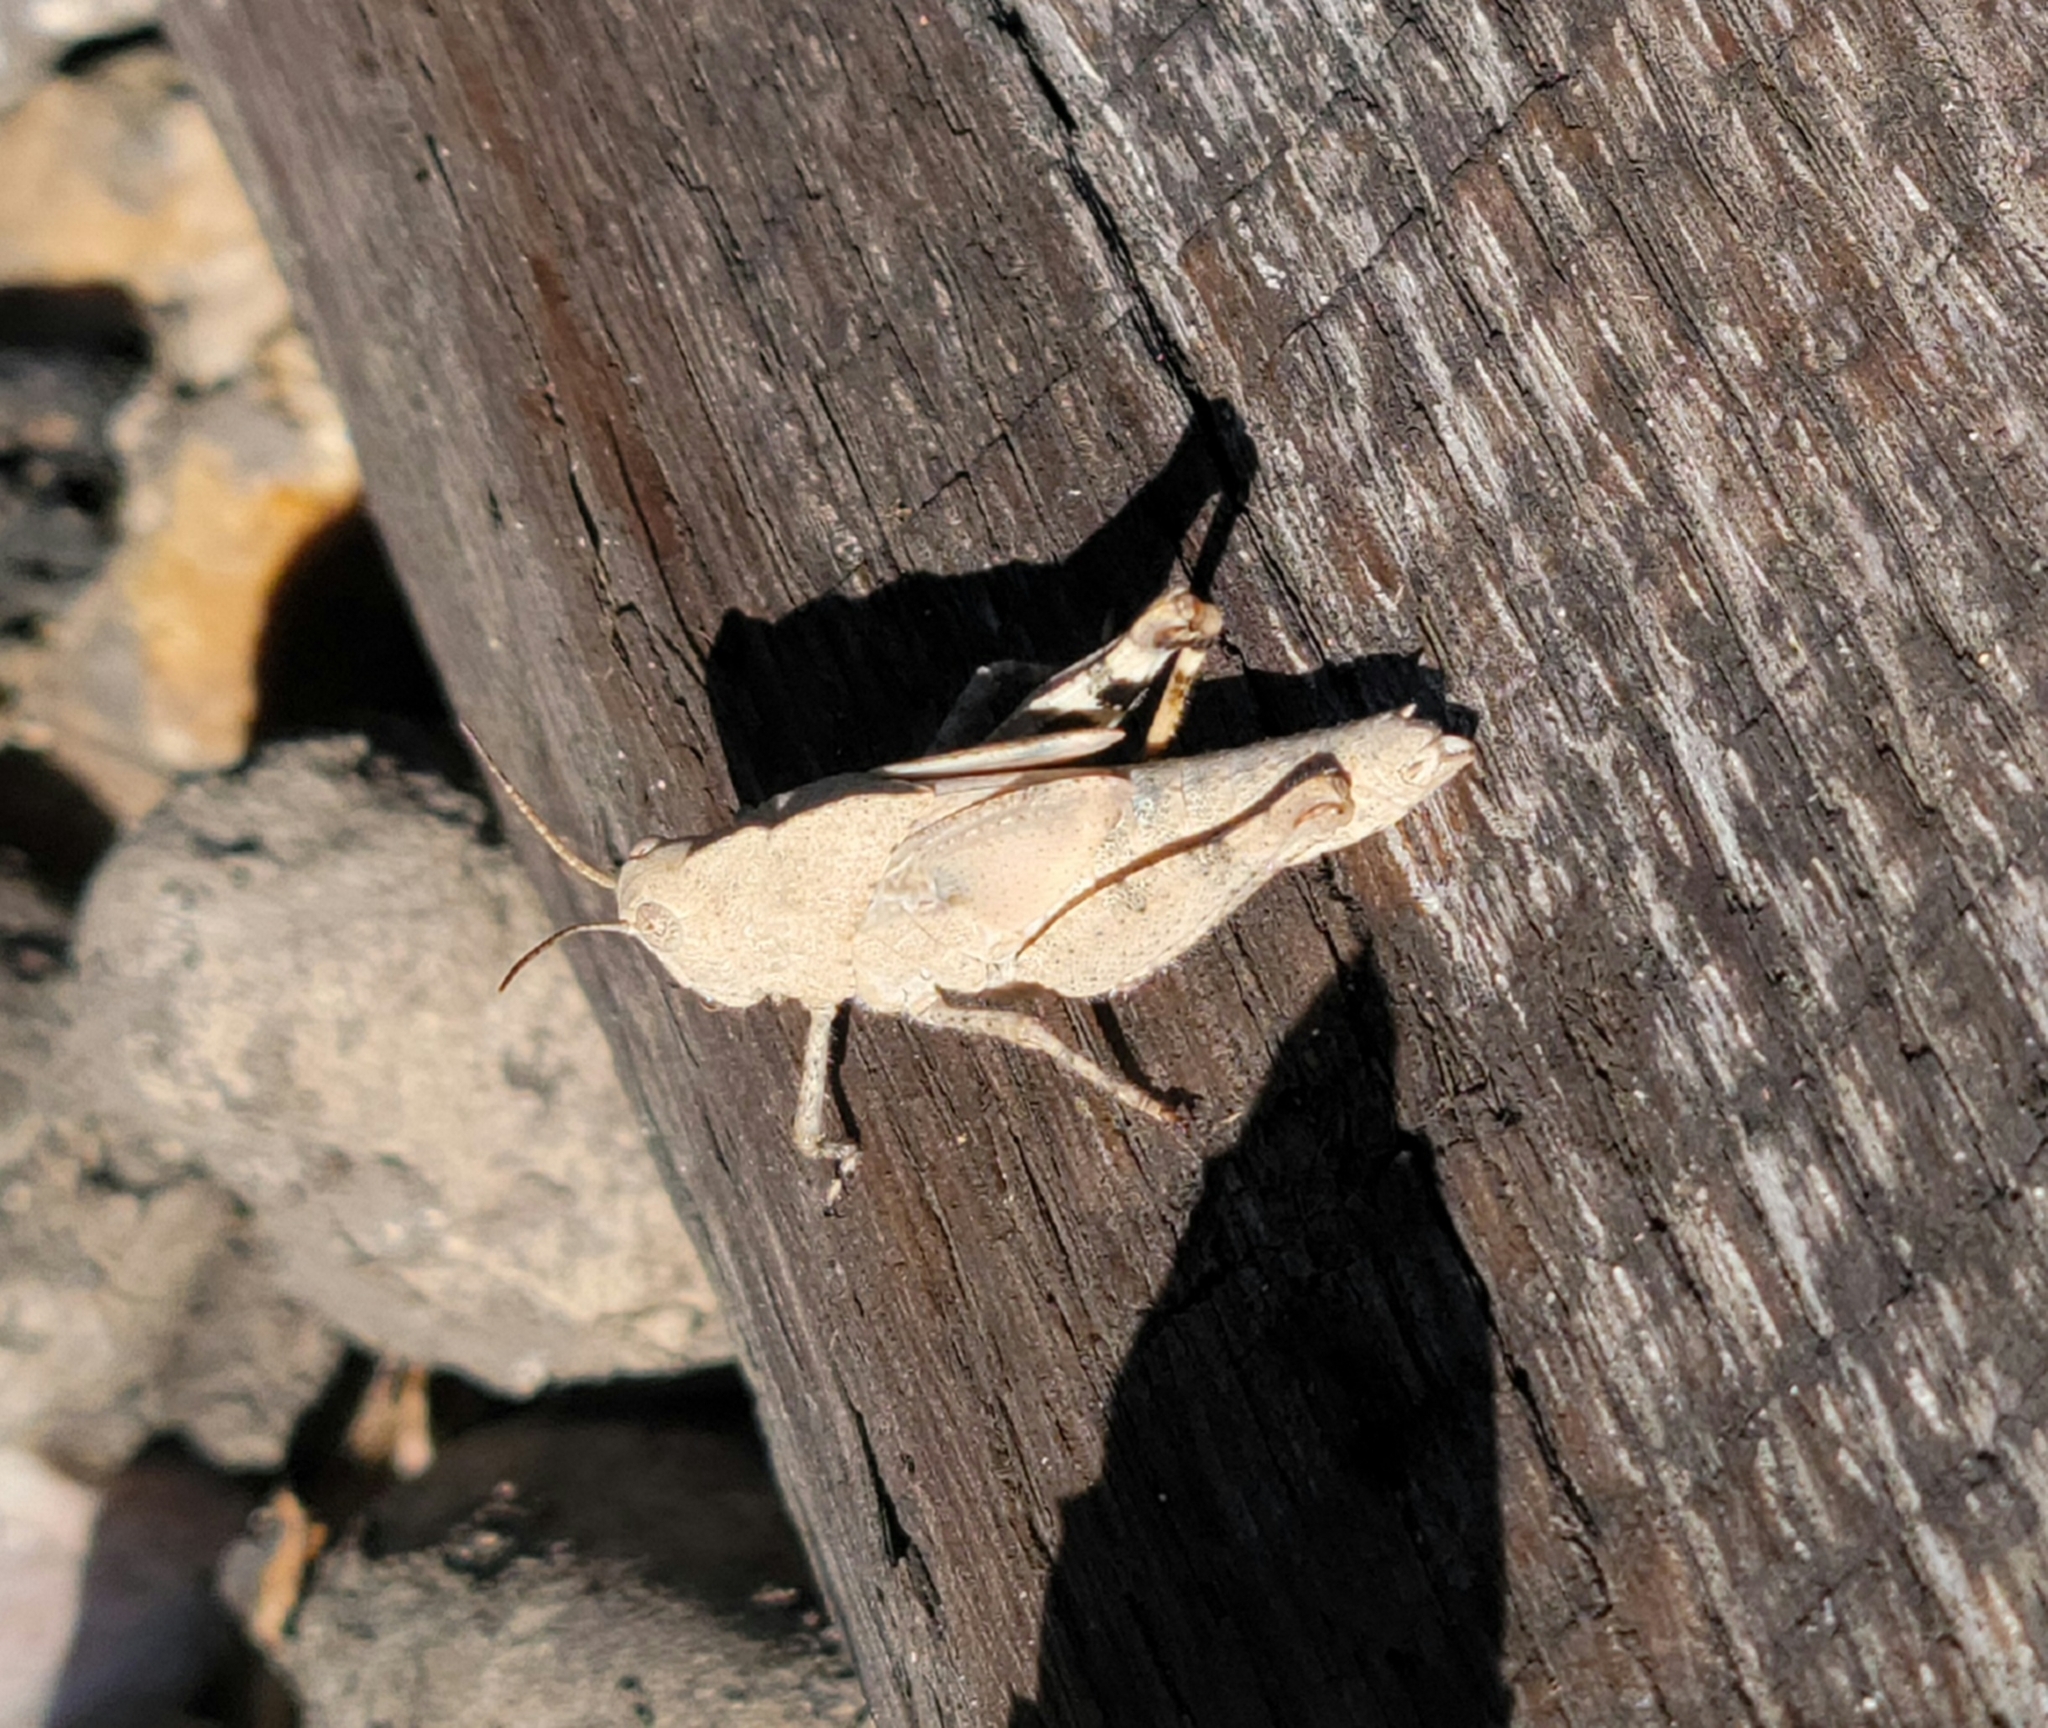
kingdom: Animalia
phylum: Arthropoda
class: Insecta
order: Orthoptera
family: Acrididae
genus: Dissosteira
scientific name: Dissosteira carolina
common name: Carolina grasshopper
